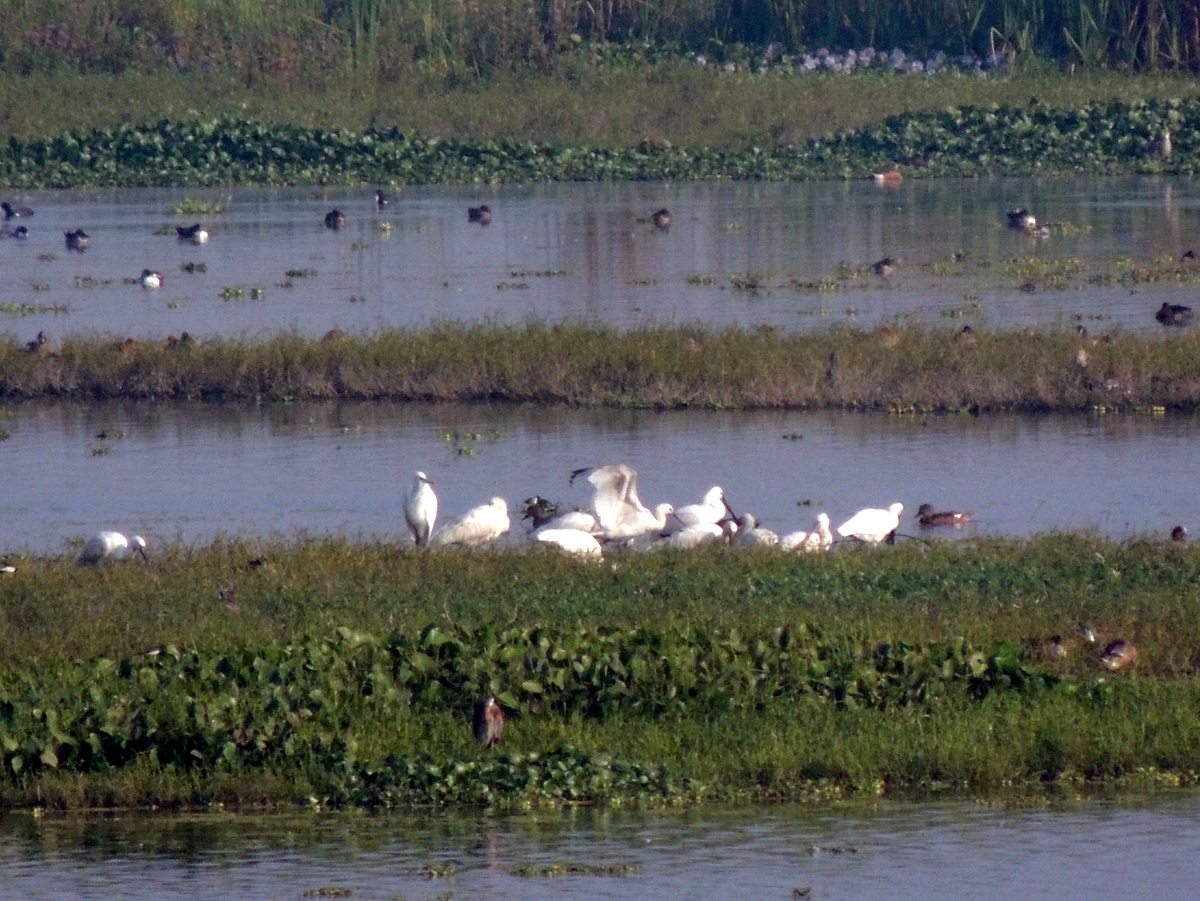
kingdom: Animalia
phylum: Chordata
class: Aves
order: Pelecaniformes
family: Threskiornithidae
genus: Platalea
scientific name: Platalea leucorodia
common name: Eurasian spoonbill
